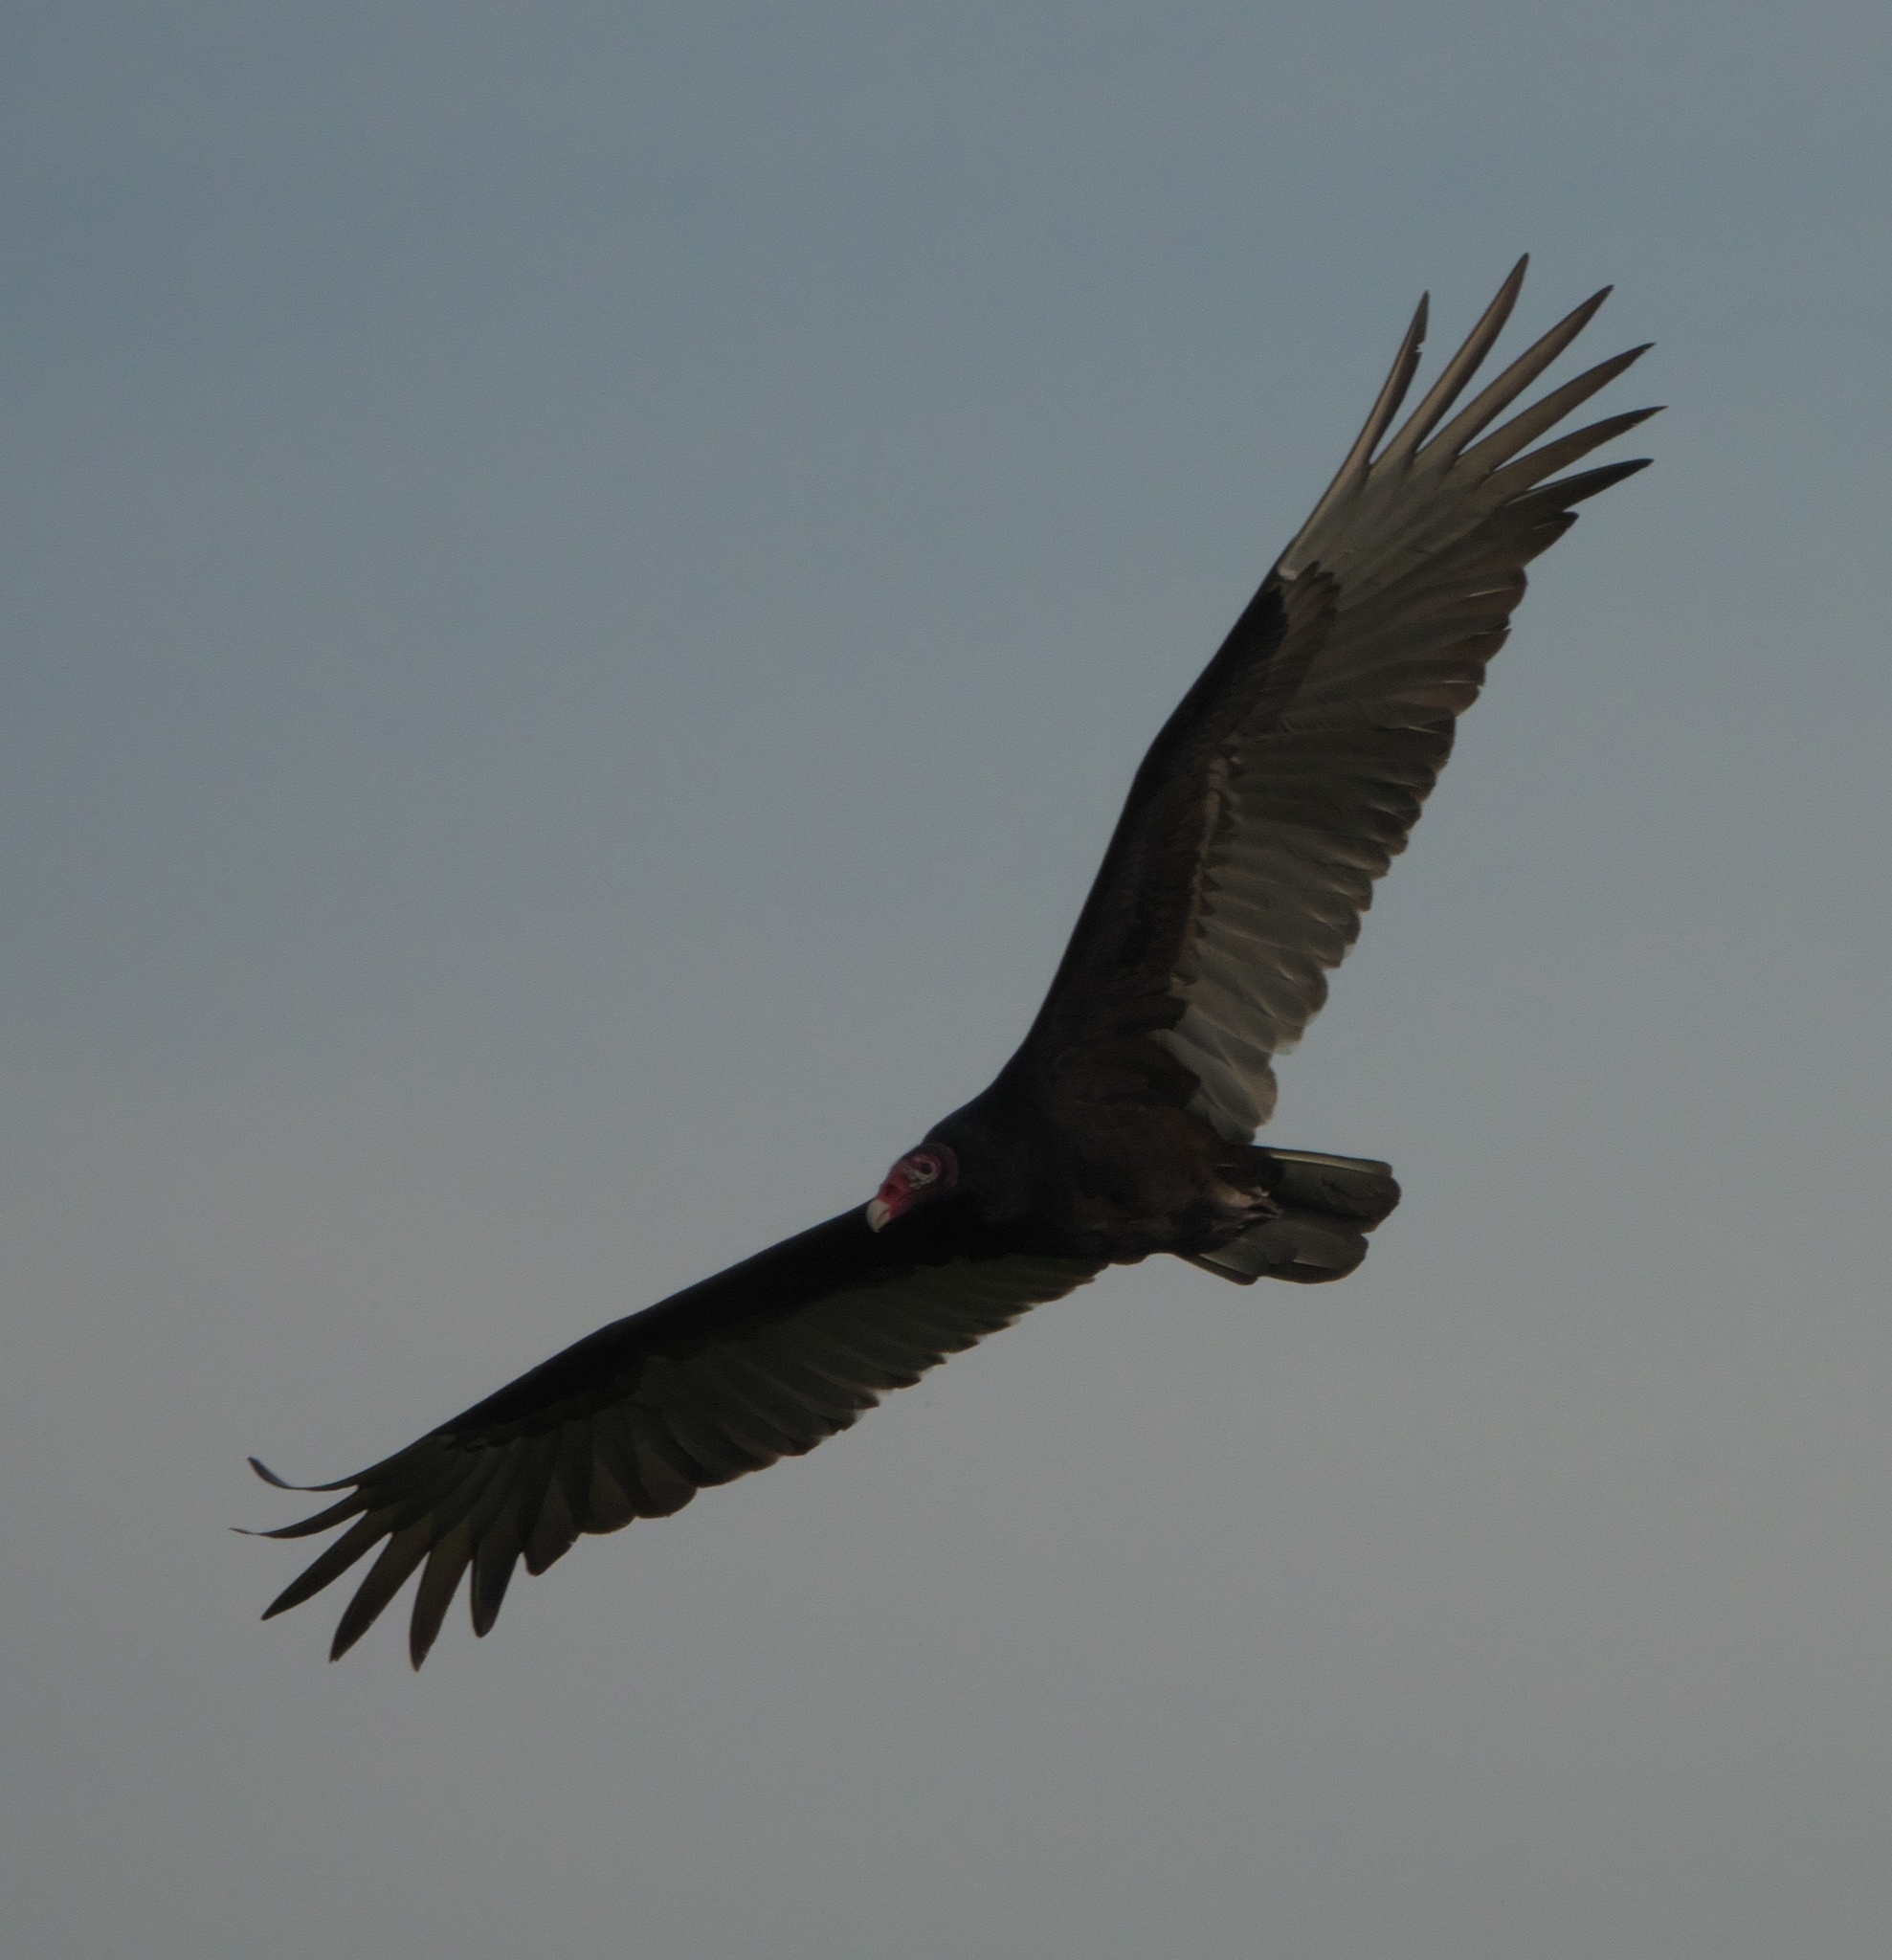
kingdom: Animalia
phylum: Chordata
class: Aves
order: Accipitriformes
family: Cathartidae
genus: Cathartes
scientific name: Cathartes aura
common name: Turkey vulture
